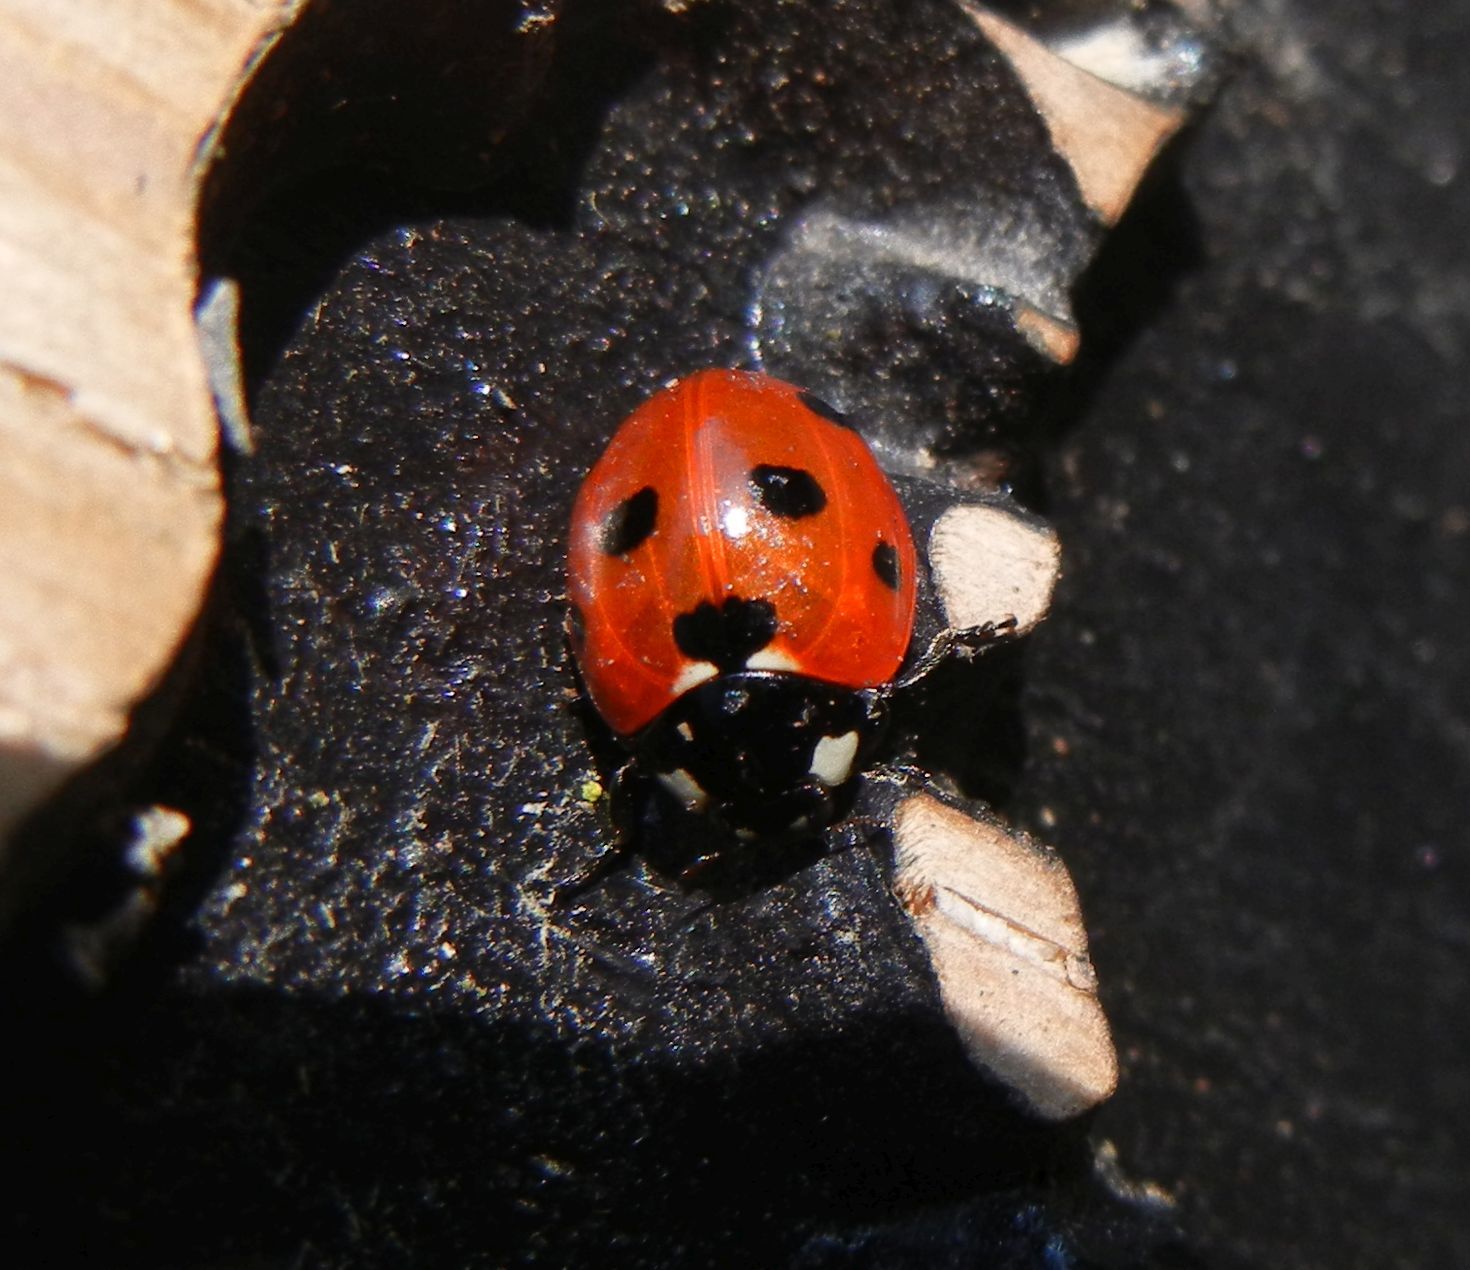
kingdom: Animalia
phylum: Arthropoda
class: Insecta
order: Coleoptera
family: Coccinellidae
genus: Coccinella
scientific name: Coccinella septempunctata
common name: Sevenspotted lady beetle
